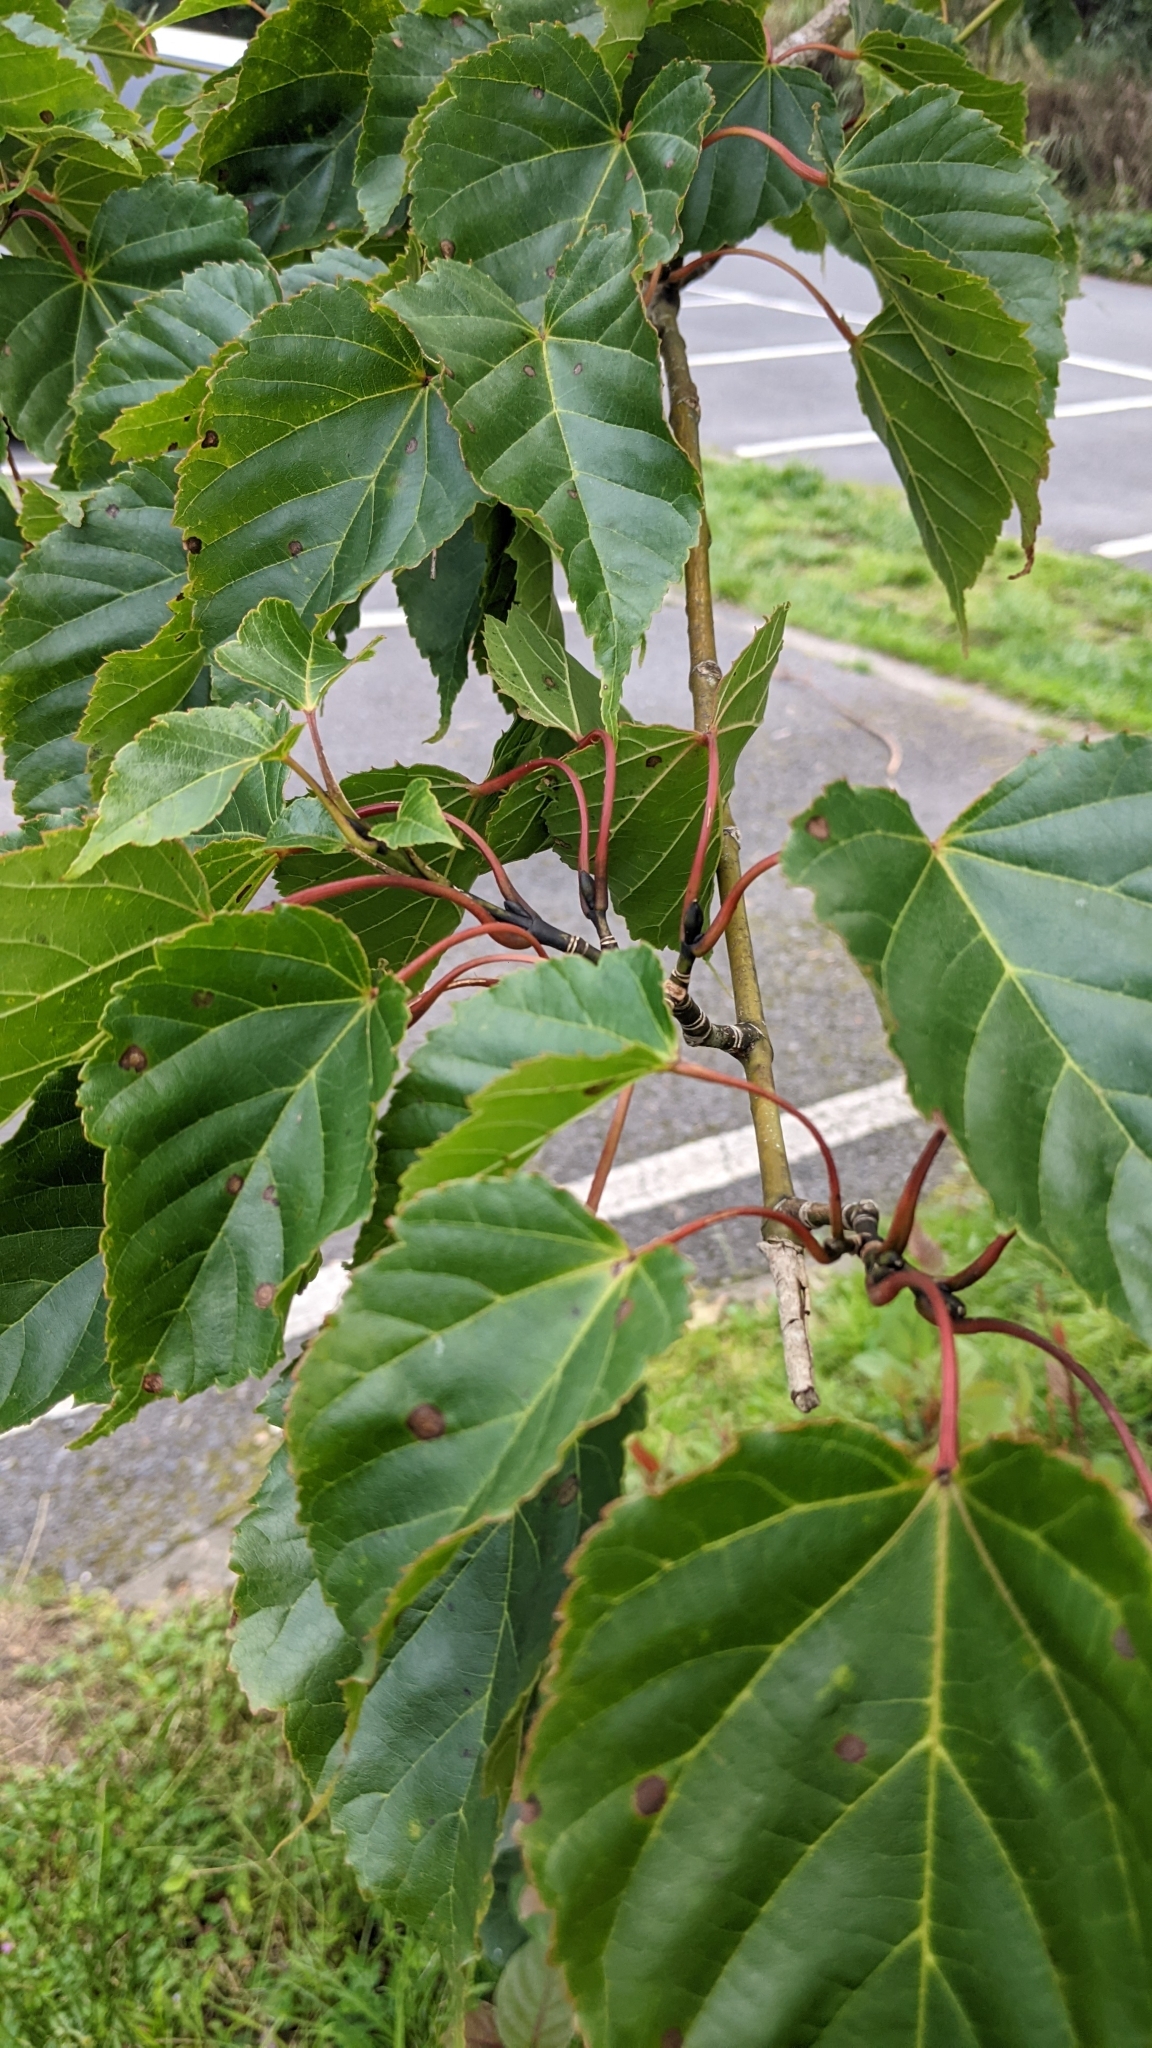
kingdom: Plantae
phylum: Tracheophyta
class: Magnoliopsida
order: Sapindales
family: Sapindaceae
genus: Acer
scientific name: Acer caudatifolium
